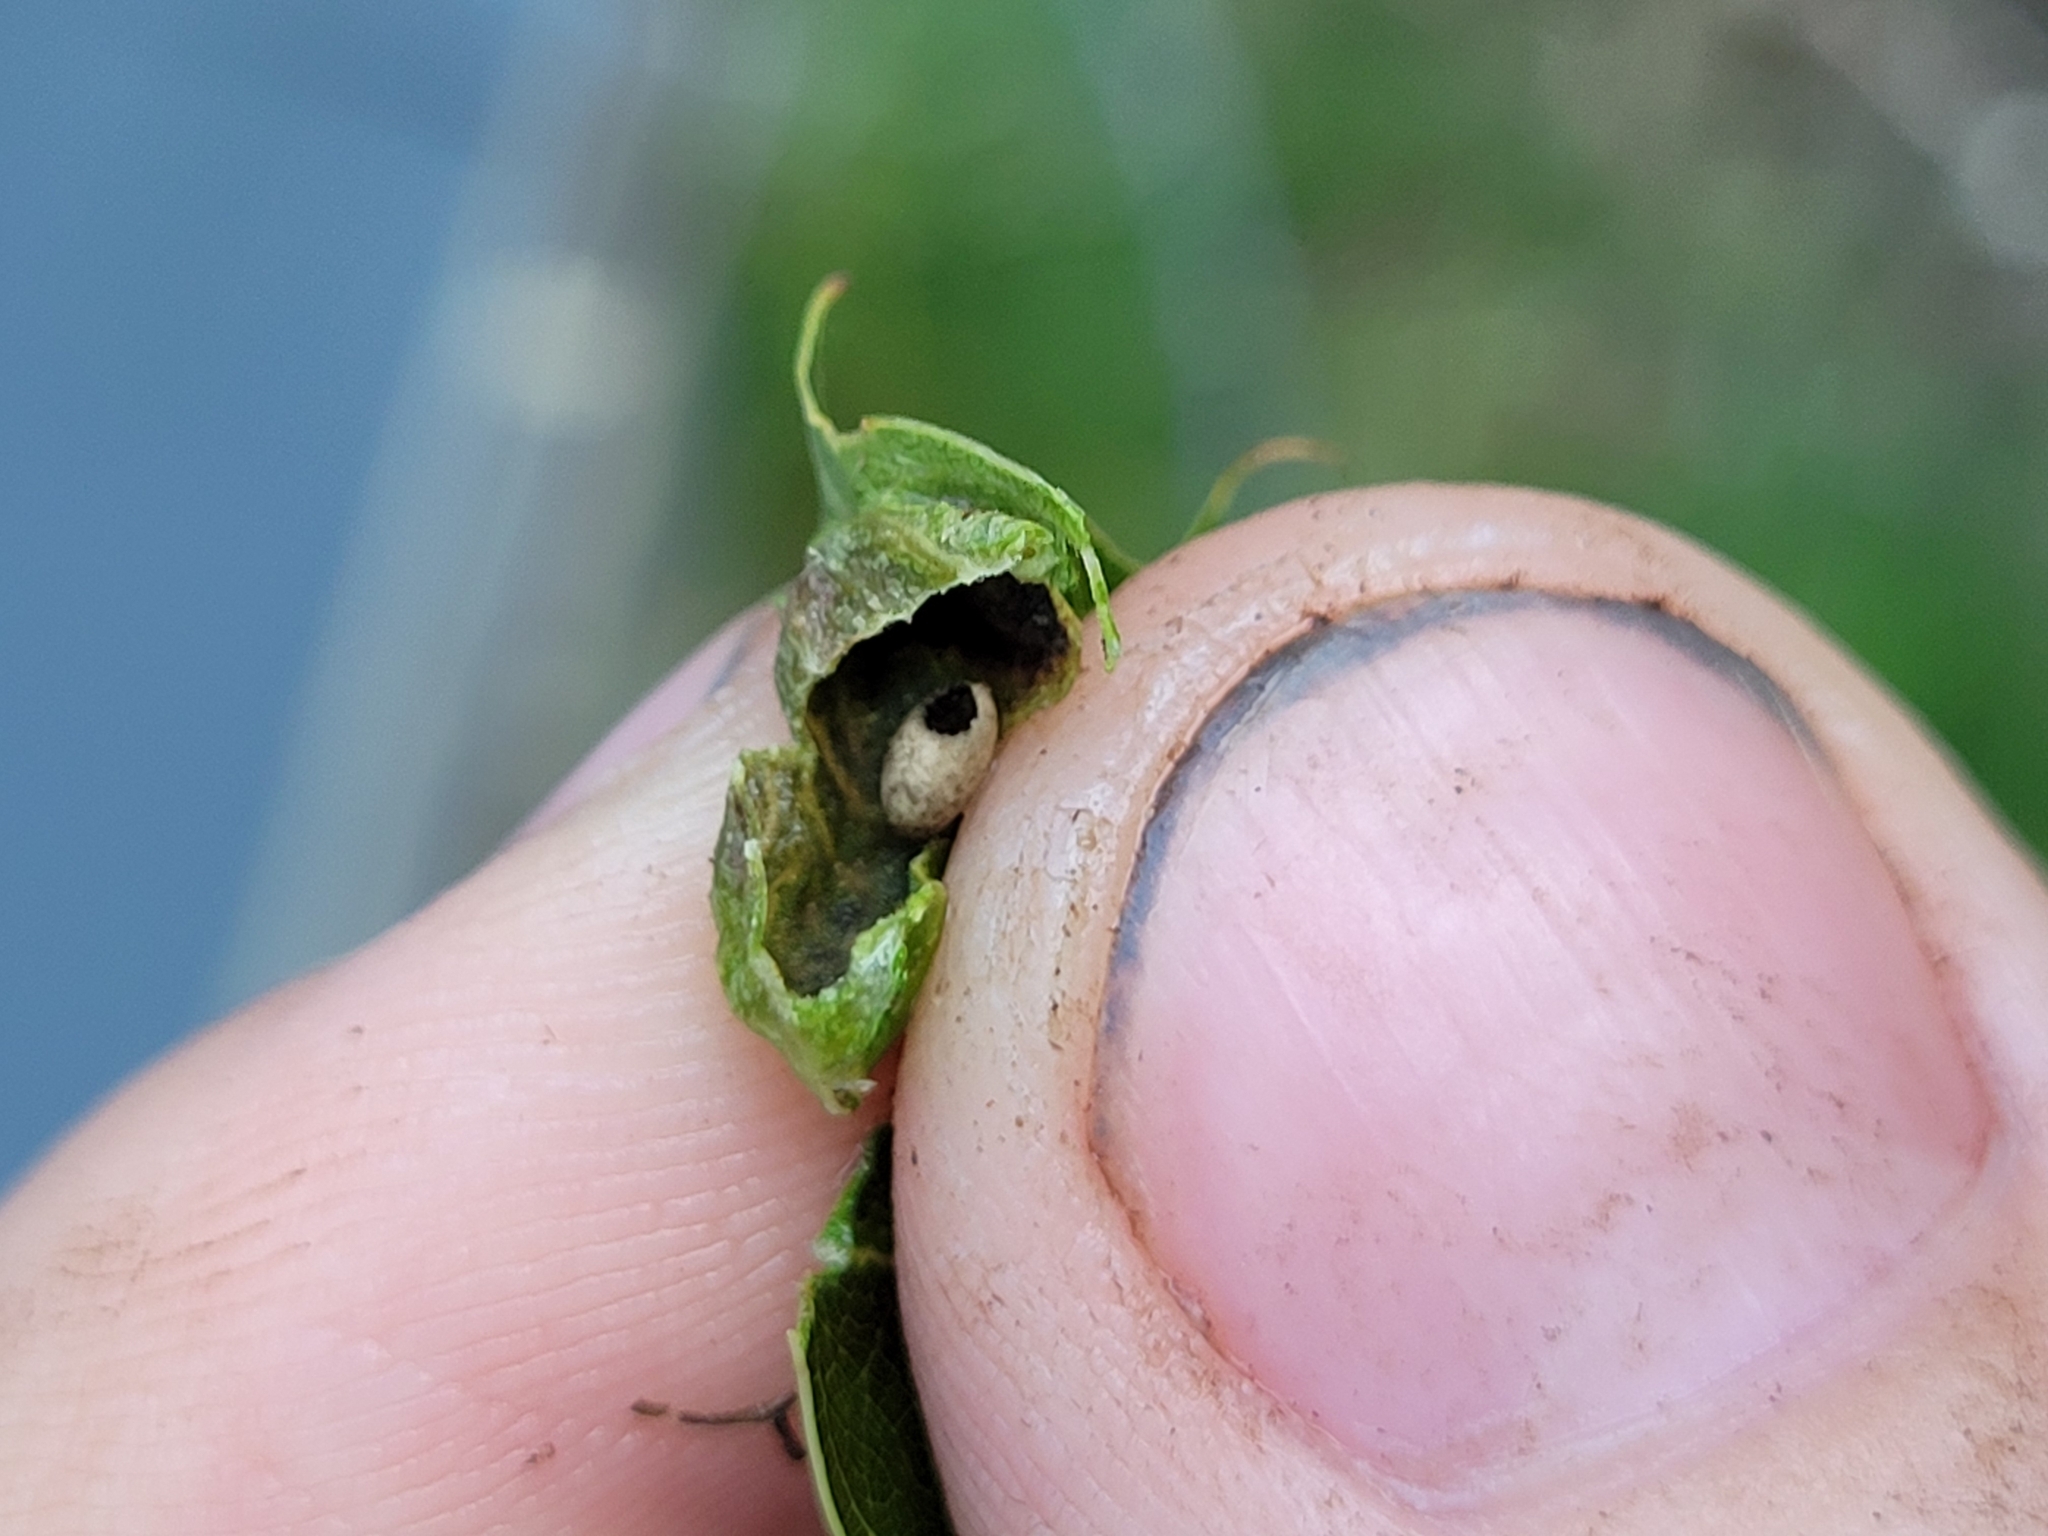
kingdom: Animalia
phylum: Arthropoda
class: Insecta
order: Hymenoptera
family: Cynipidae
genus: Dryocosmus
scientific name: Dryocosmus
